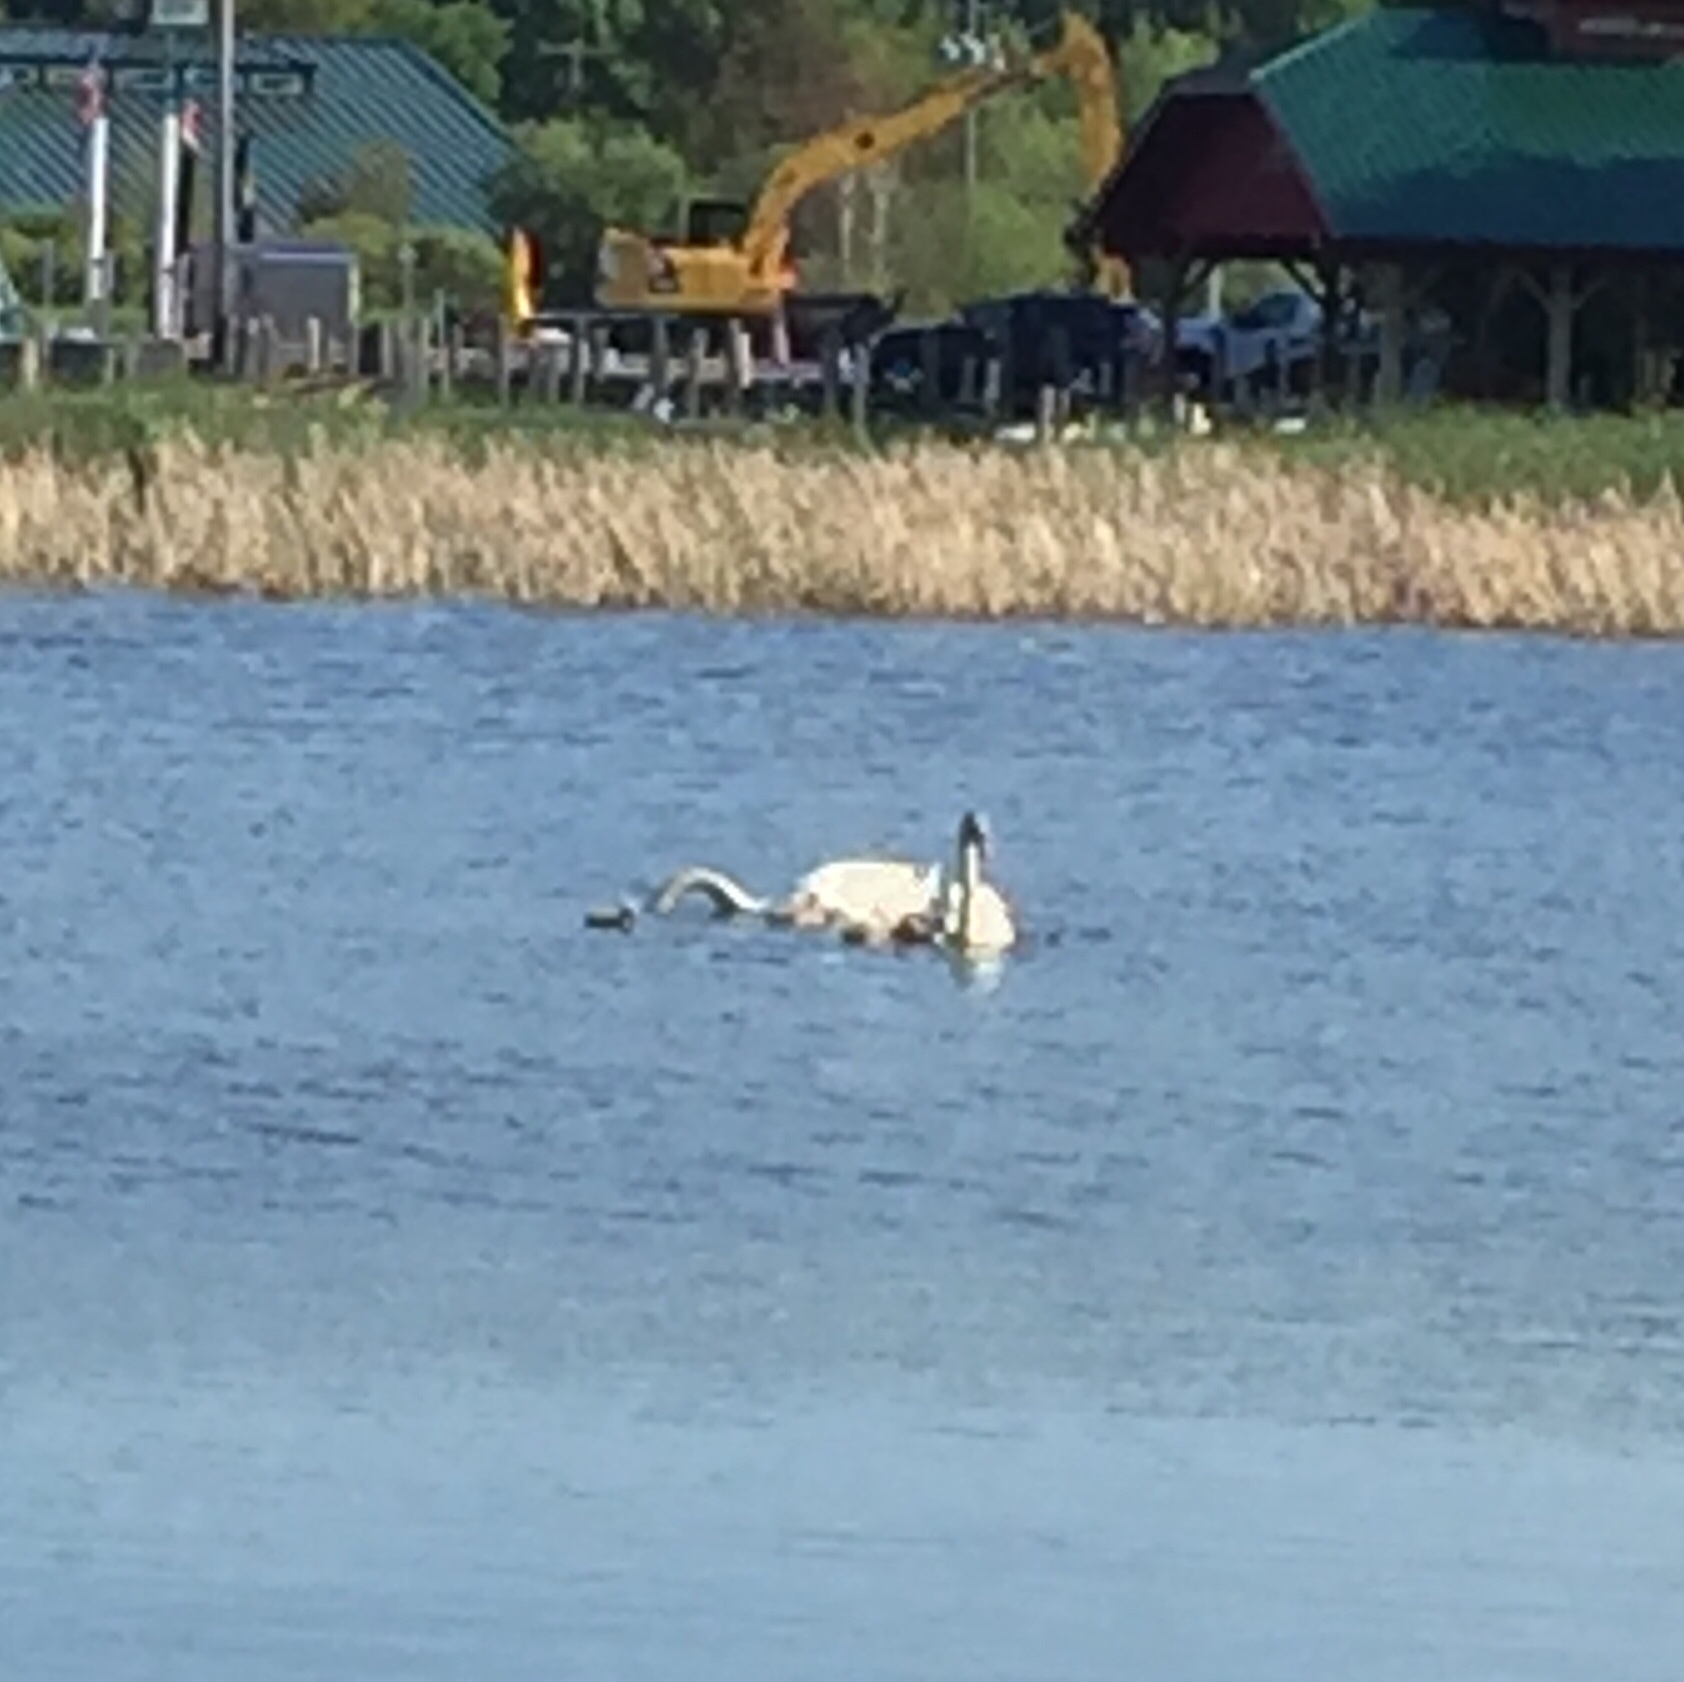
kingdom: Animalia
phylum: Chordata
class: Aves
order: Anseriformes
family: Anatidae
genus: Cygnus
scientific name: Cygnus olor
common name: Mute swan
